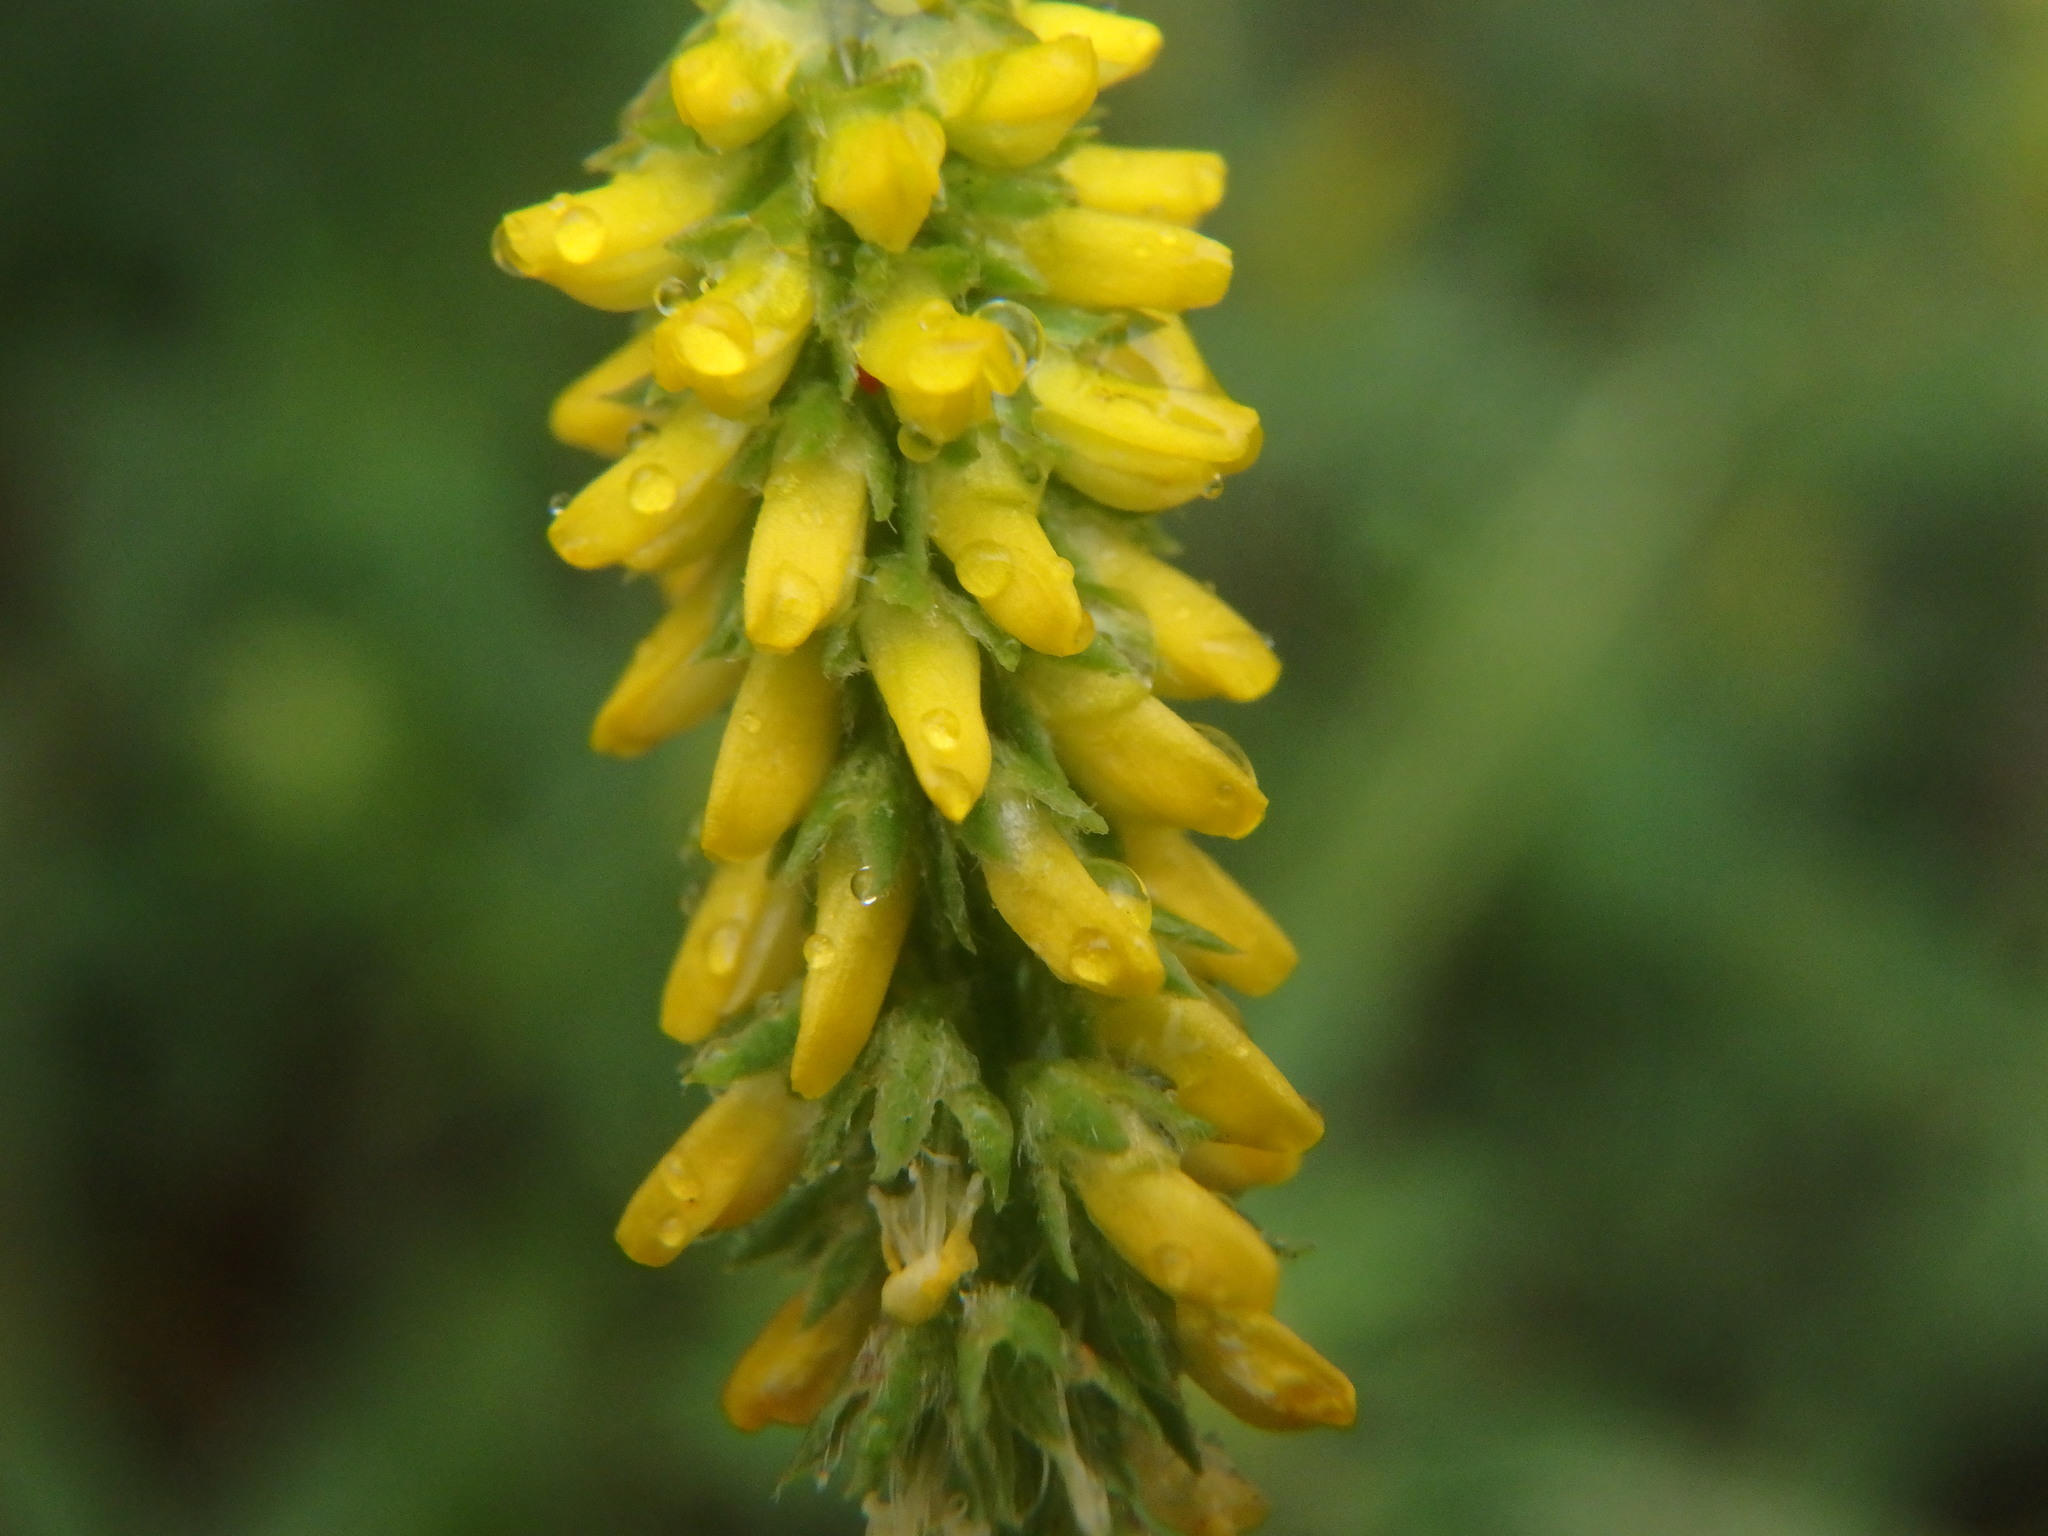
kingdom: Plantae
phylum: Tracheophyta
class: Magnoliopsida
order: Fabales
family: Fabaceae
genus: Melilotus
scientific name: Melilotus indicus
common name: Small melilot
